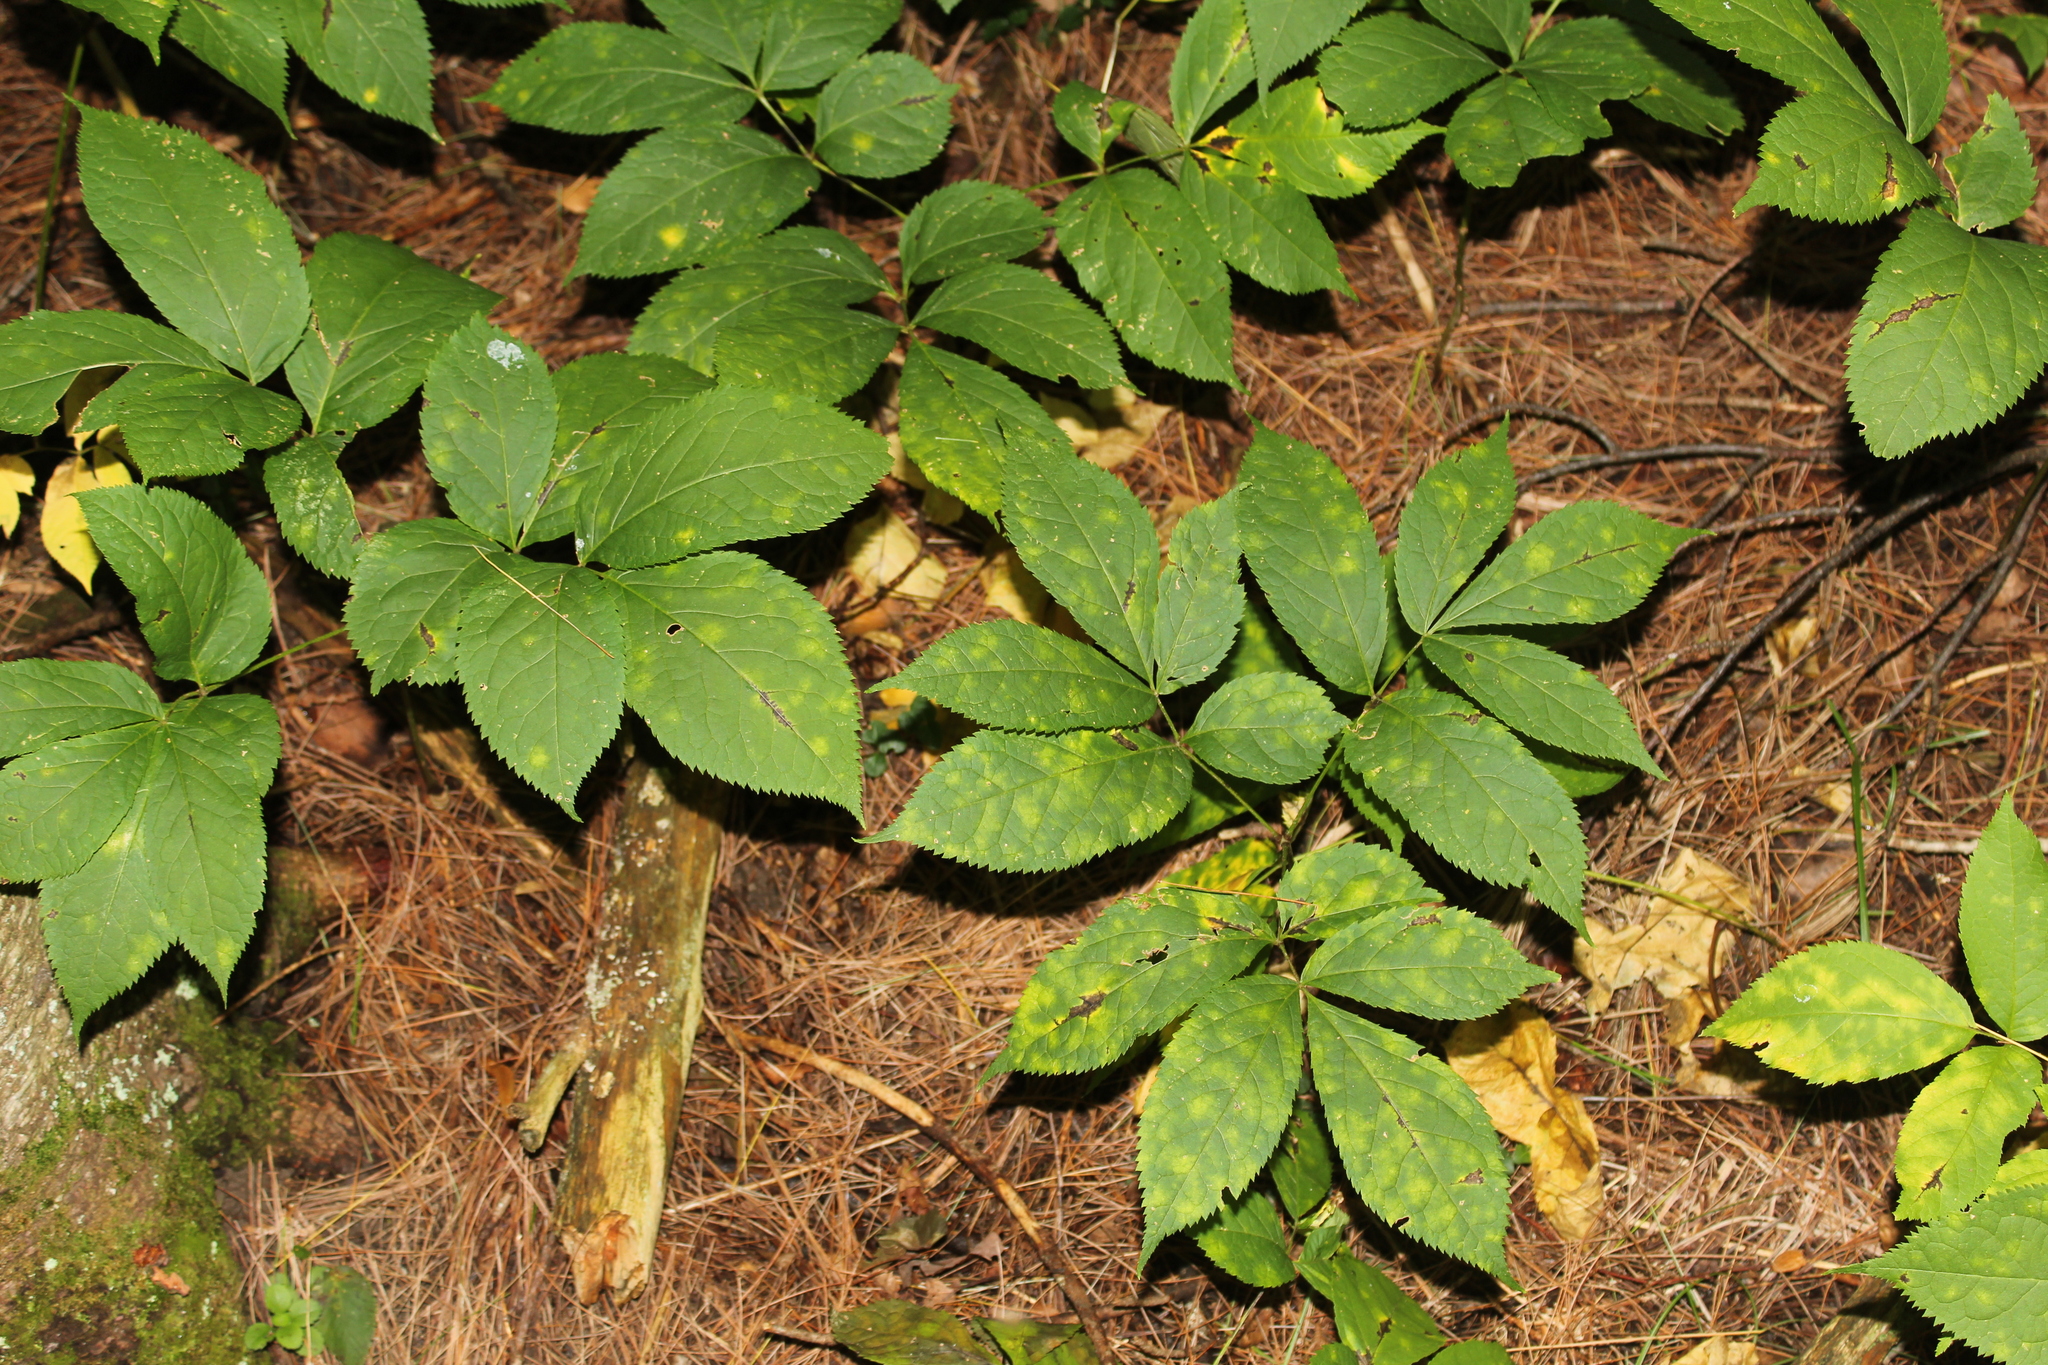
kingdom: Plantae
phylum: Tracheophyta
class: Magnoliopsida
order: Apiales
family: Araliaceae
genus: Aralia
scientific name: Aralia nudicaulis
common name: Wild sarsaparilla
